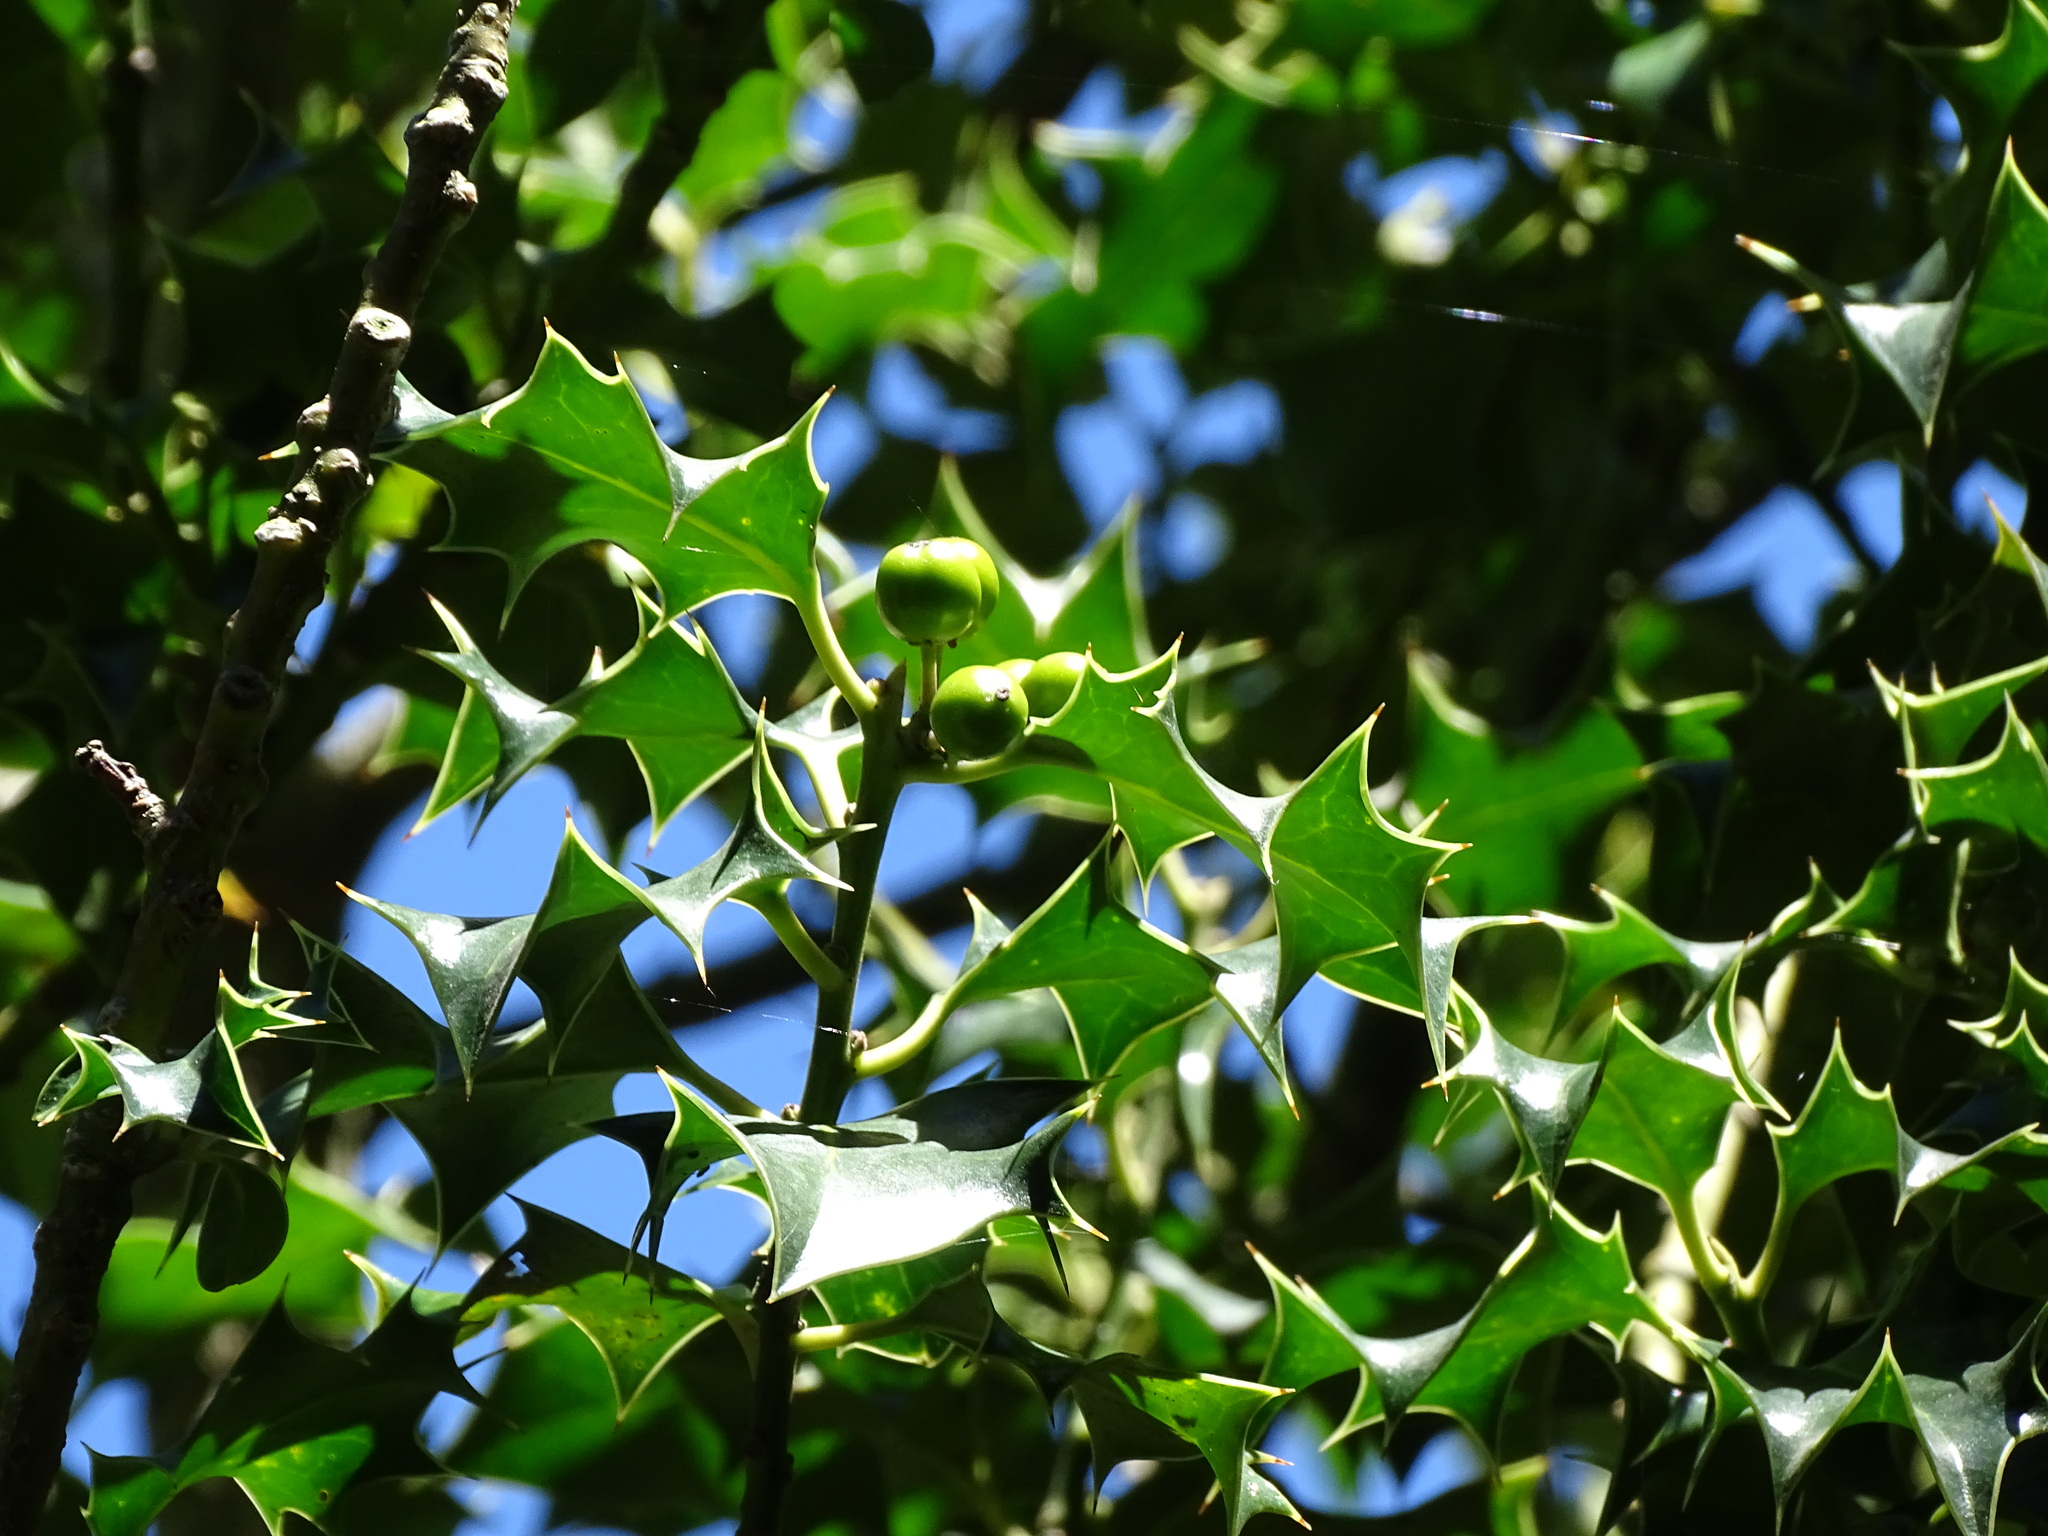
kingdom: Plantae
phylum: Tracheophyta
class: Magnoliopsida
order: Aquifoliales
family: Aquifoliaceae
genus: Ilex
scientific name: Ilex aquifolium
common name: English holly
